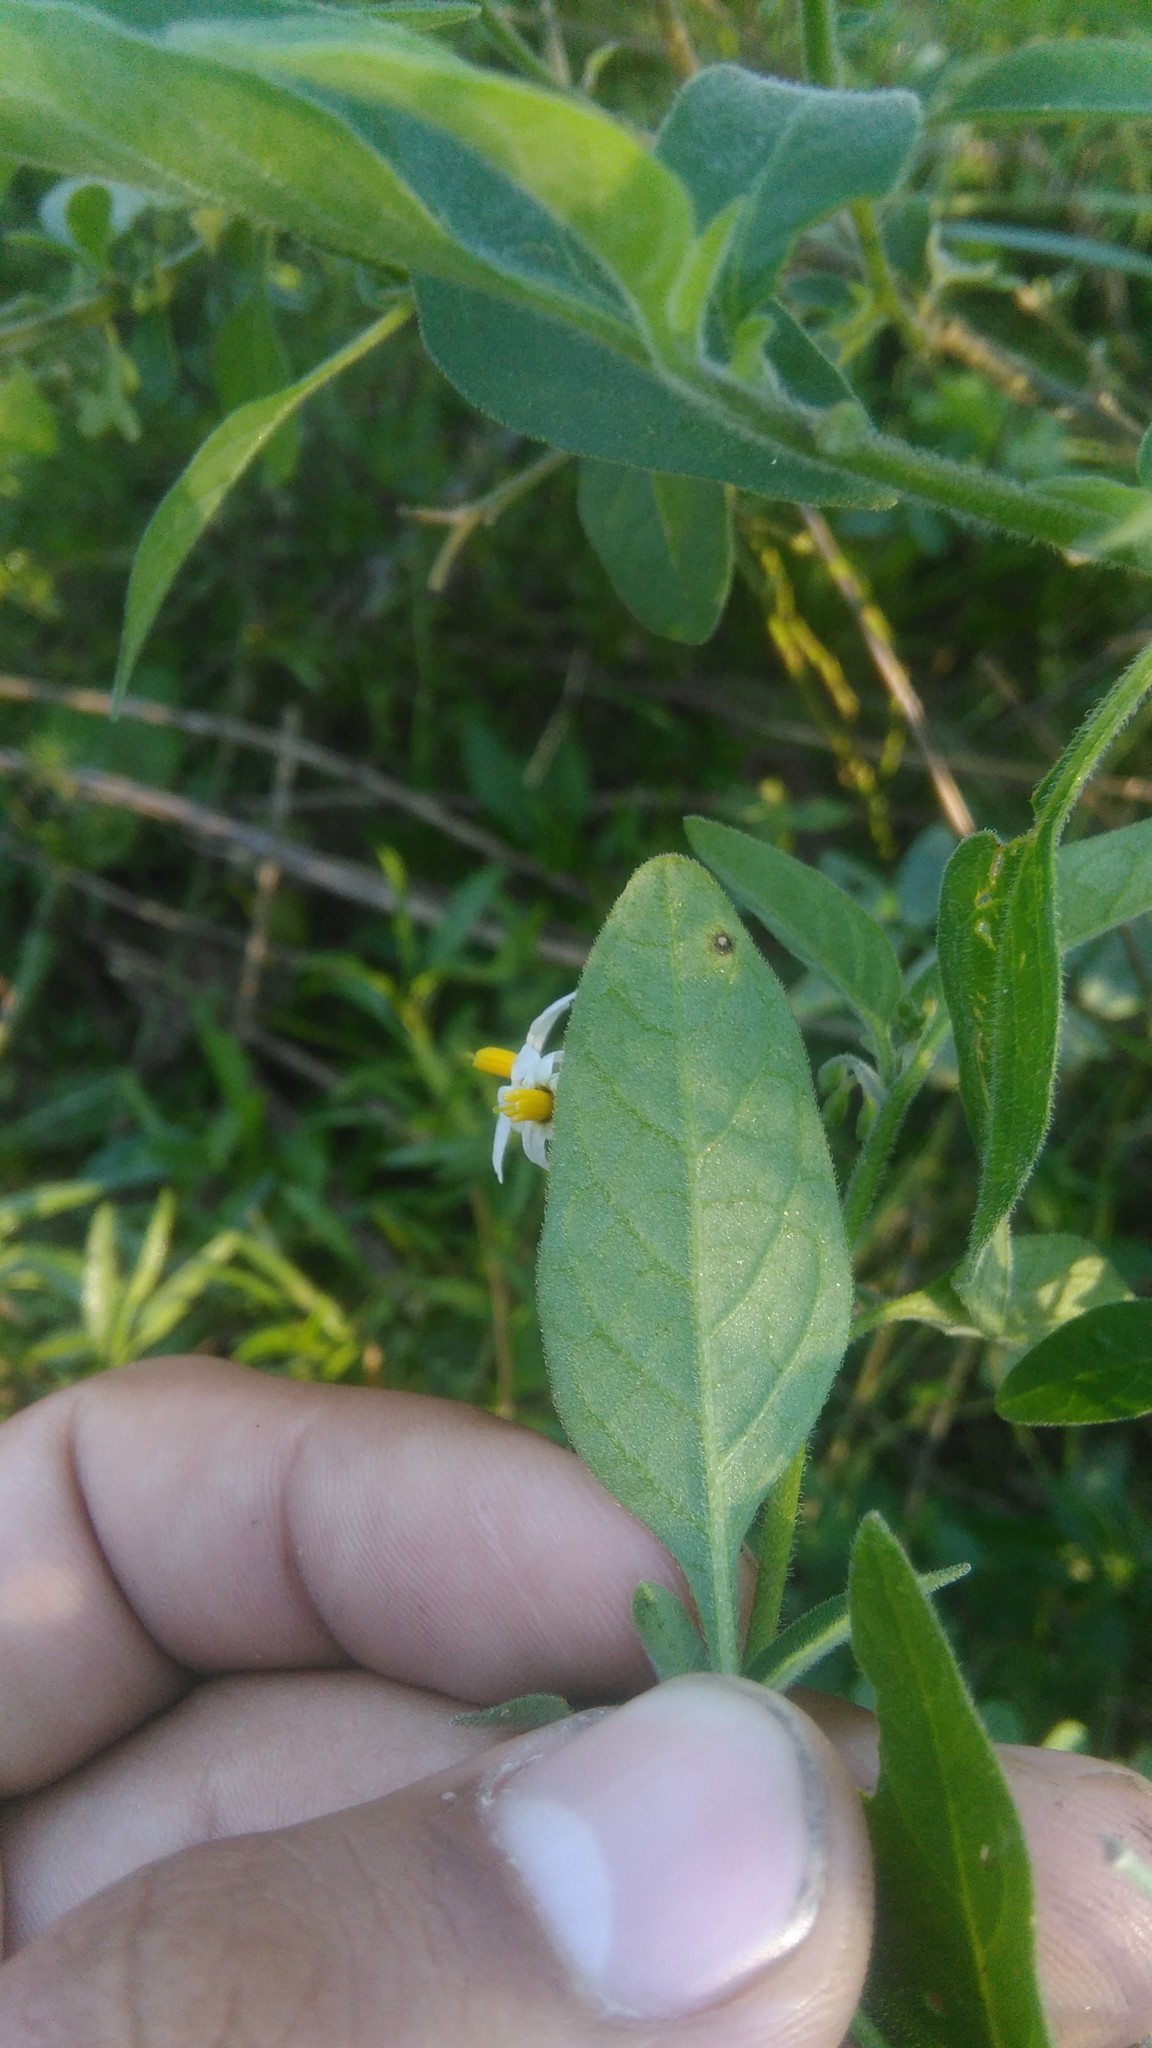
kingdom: Plantae
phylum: Tracheophyta
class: Magnoliopsida
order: Solanales
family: Solanaceae
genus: Solanum
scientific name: Solanum chenopodioides
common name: Tall nightshade
